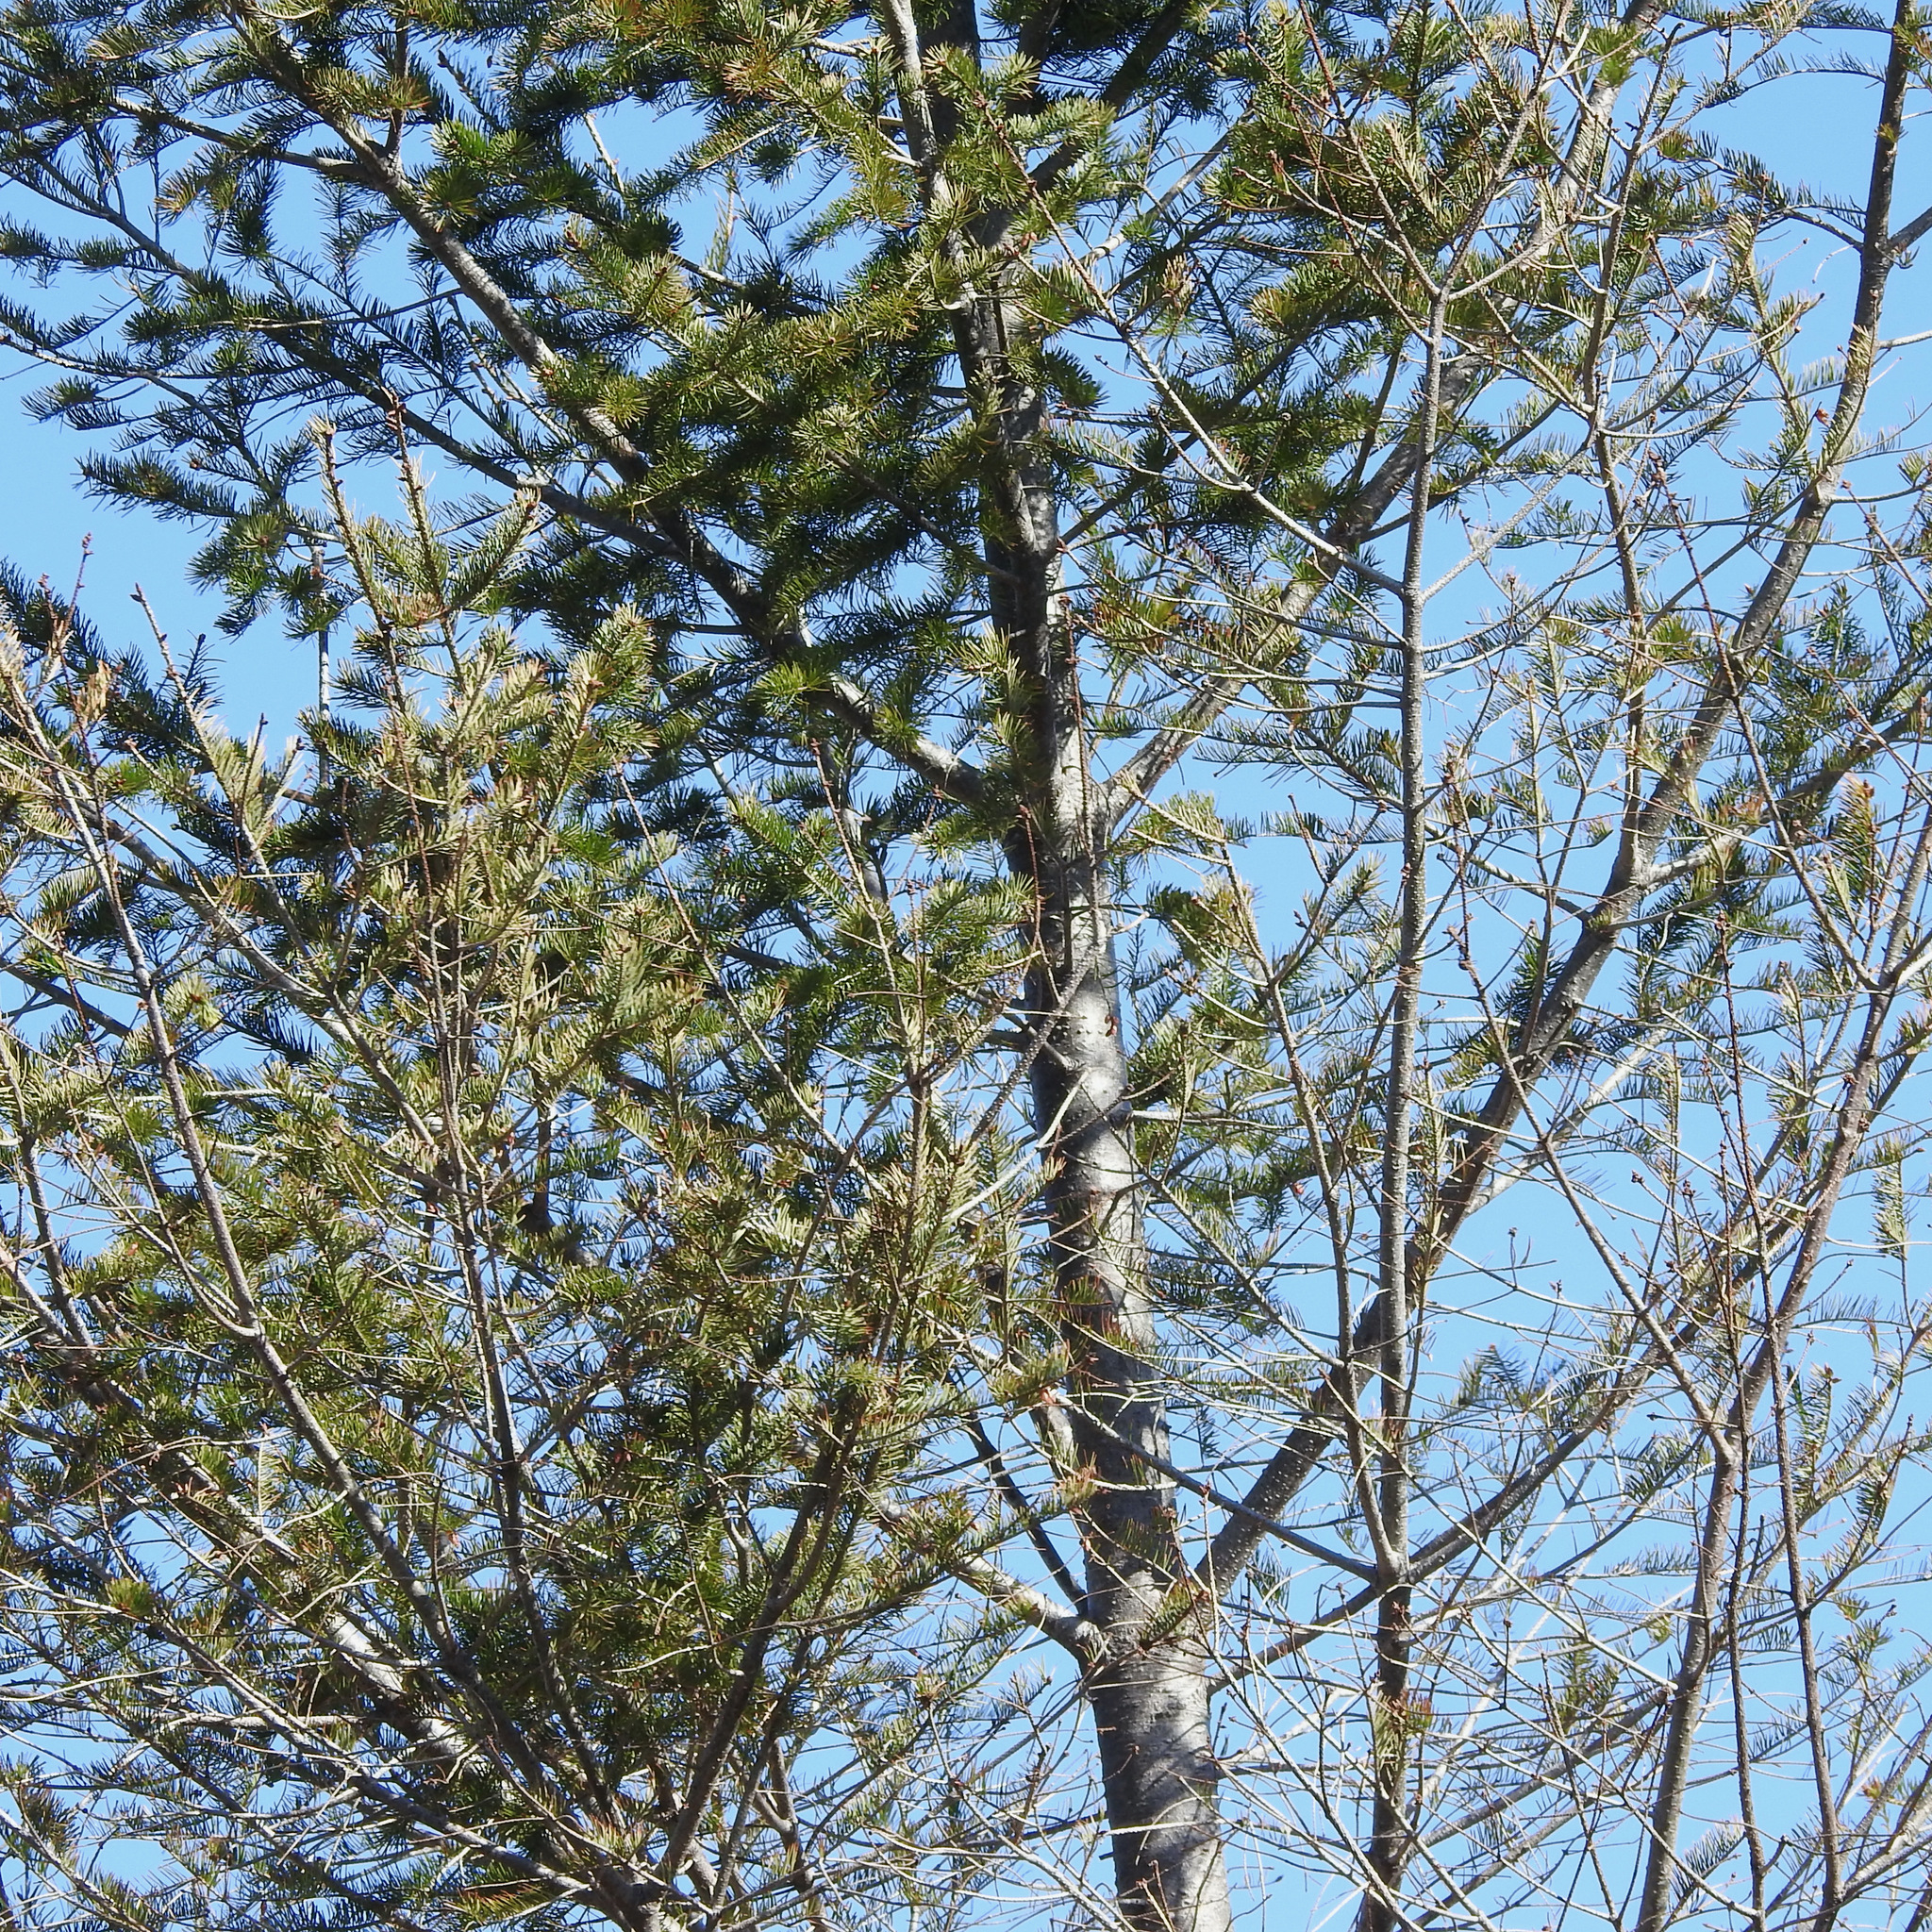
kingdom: Plantae
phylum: Tracheophyta
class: Pinopsida
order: Pinales
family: Pinaceae
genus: Pseudotsuga
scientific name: Pseudotsuga menziesii
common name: Douglas fir
